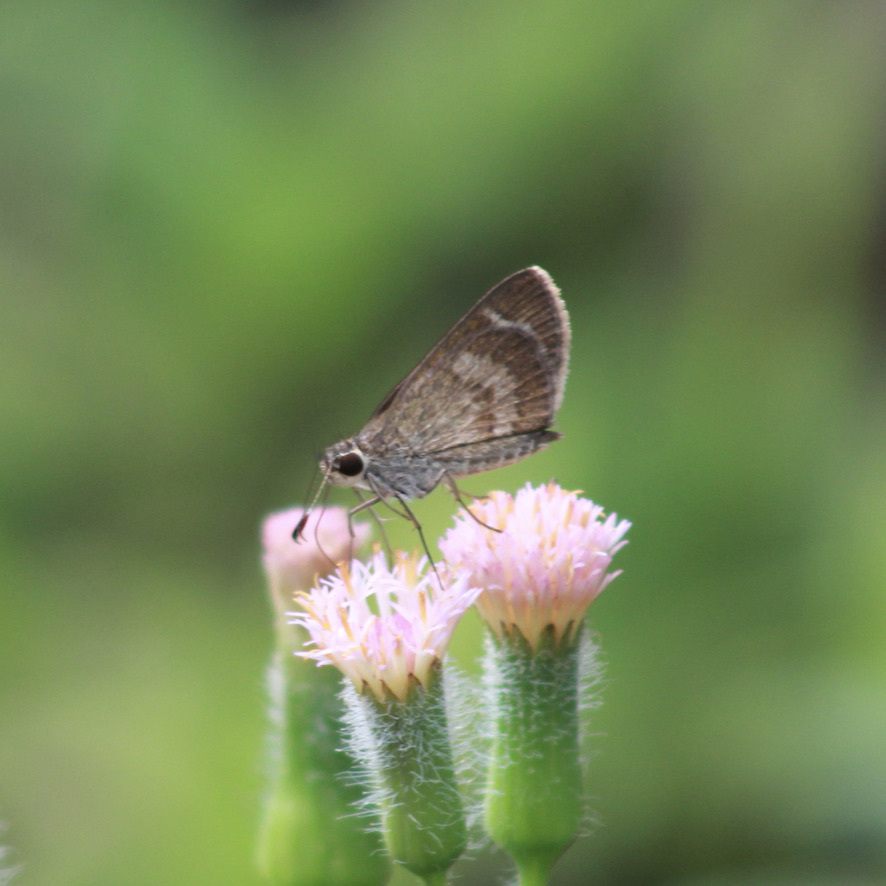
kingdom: Animalia
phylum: Arthropoda
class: Insecta
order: Lepidoptera
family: Hesperiidae
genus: Callimormus
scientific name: Callimormus saturnus
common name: Saturnus skipper
